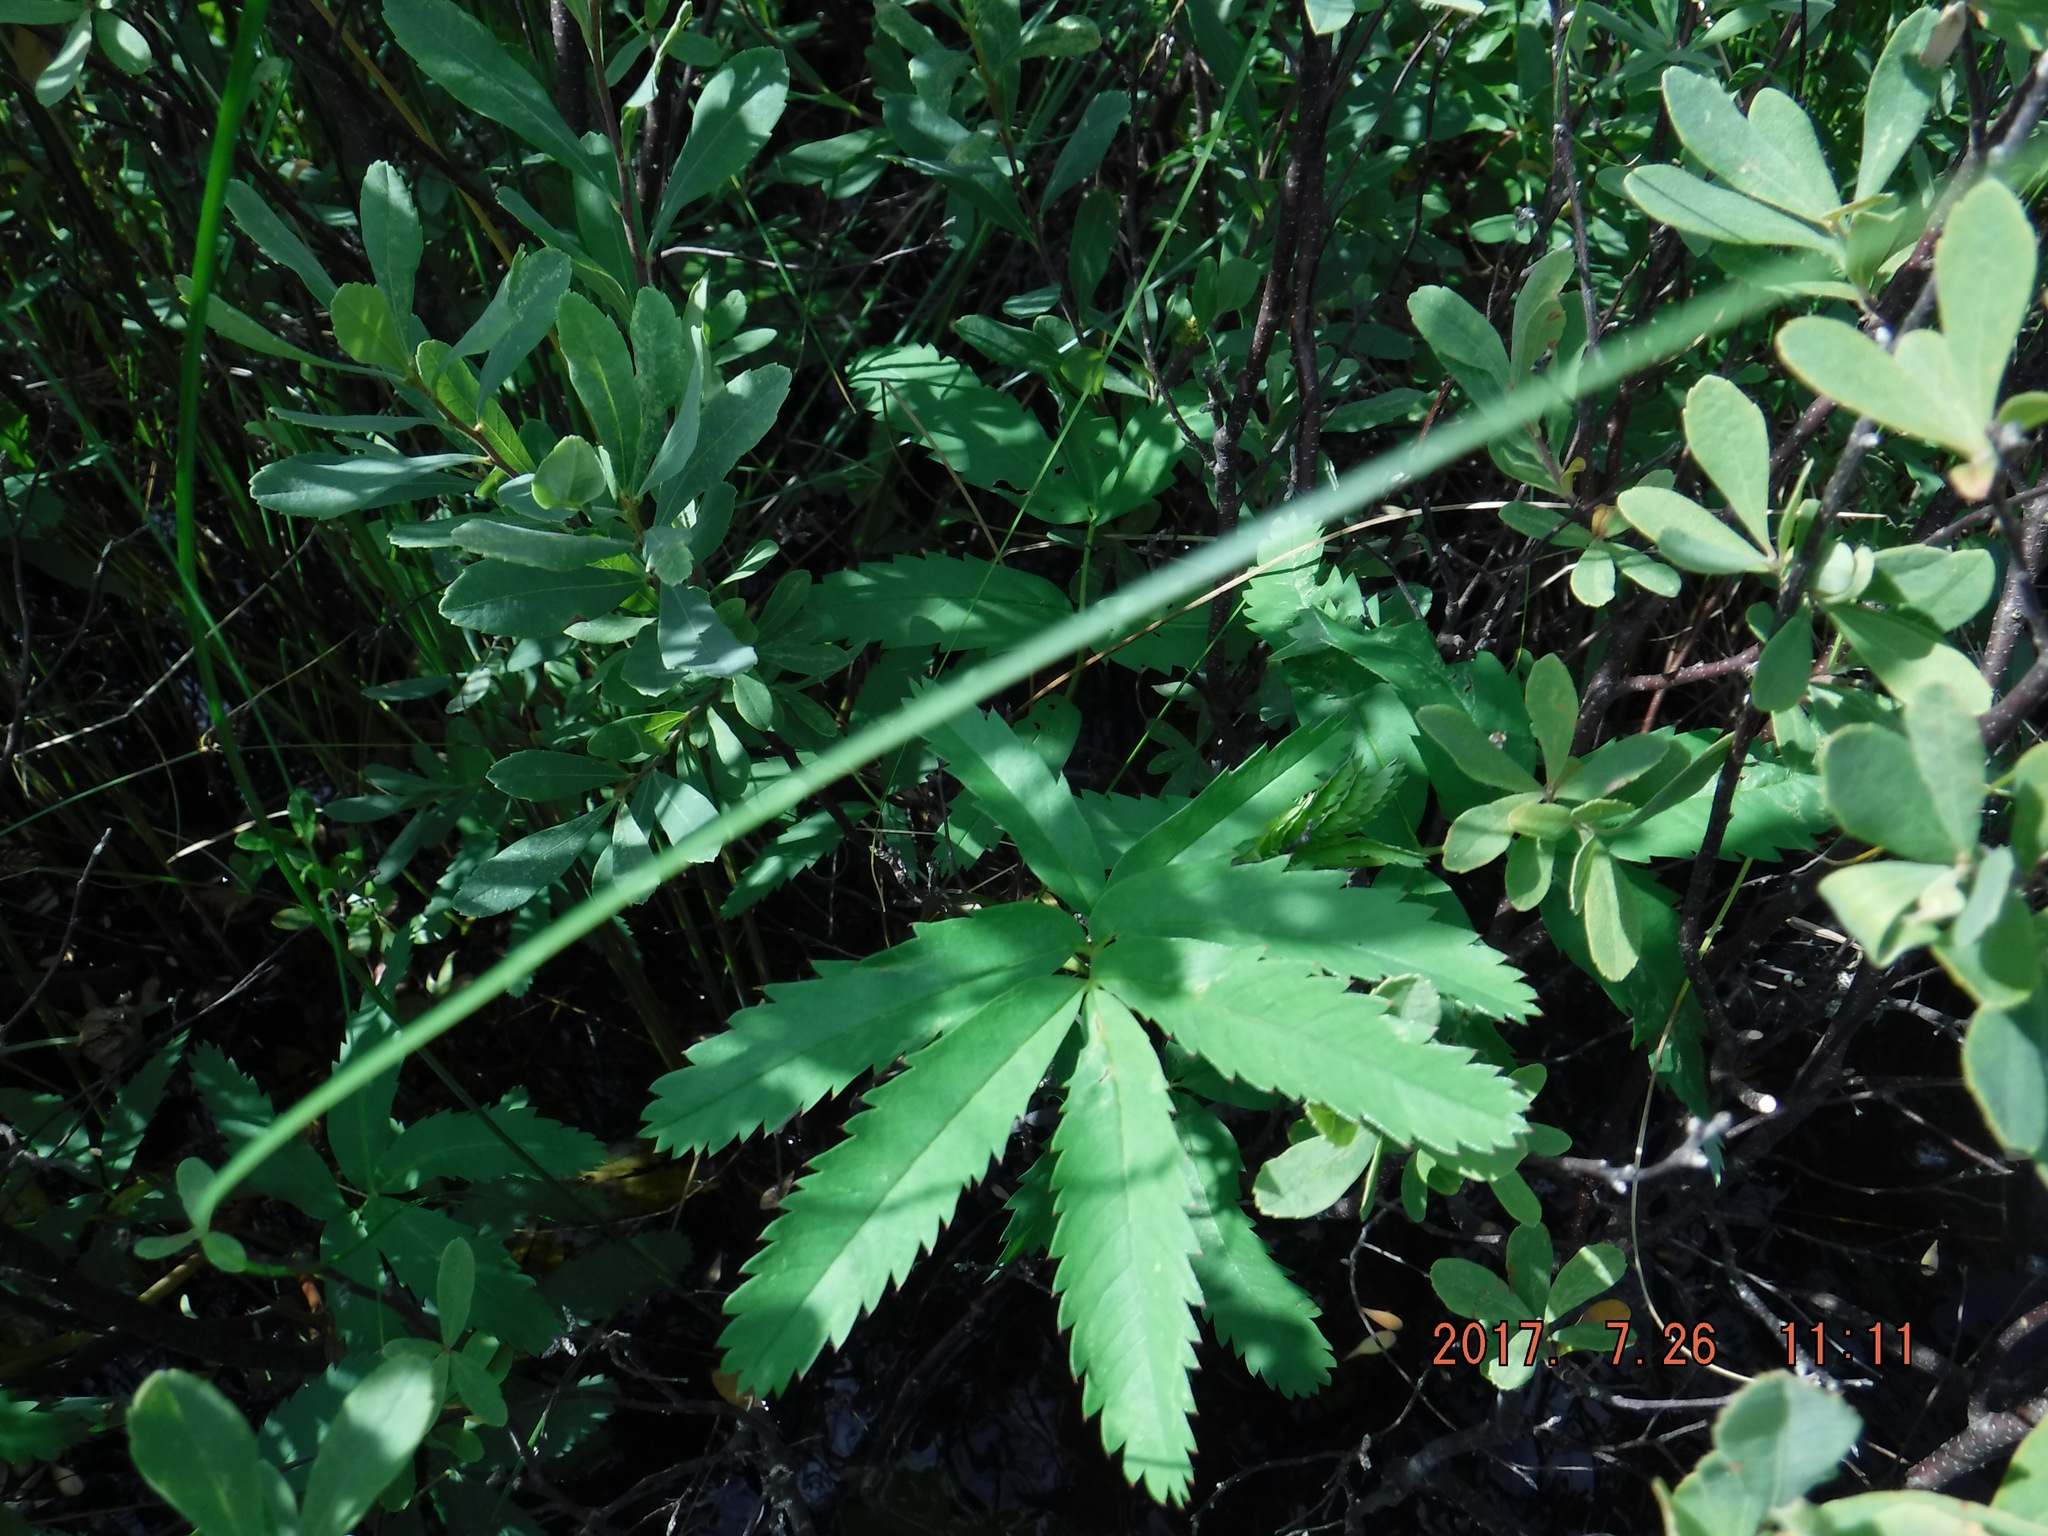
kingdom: Plantae
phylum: Tracheophyta
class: Magnoliopsida
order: Rosales
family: Rosaceae
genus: Comarum
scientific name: Comarum palustre
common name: Marsh cinquefoil
